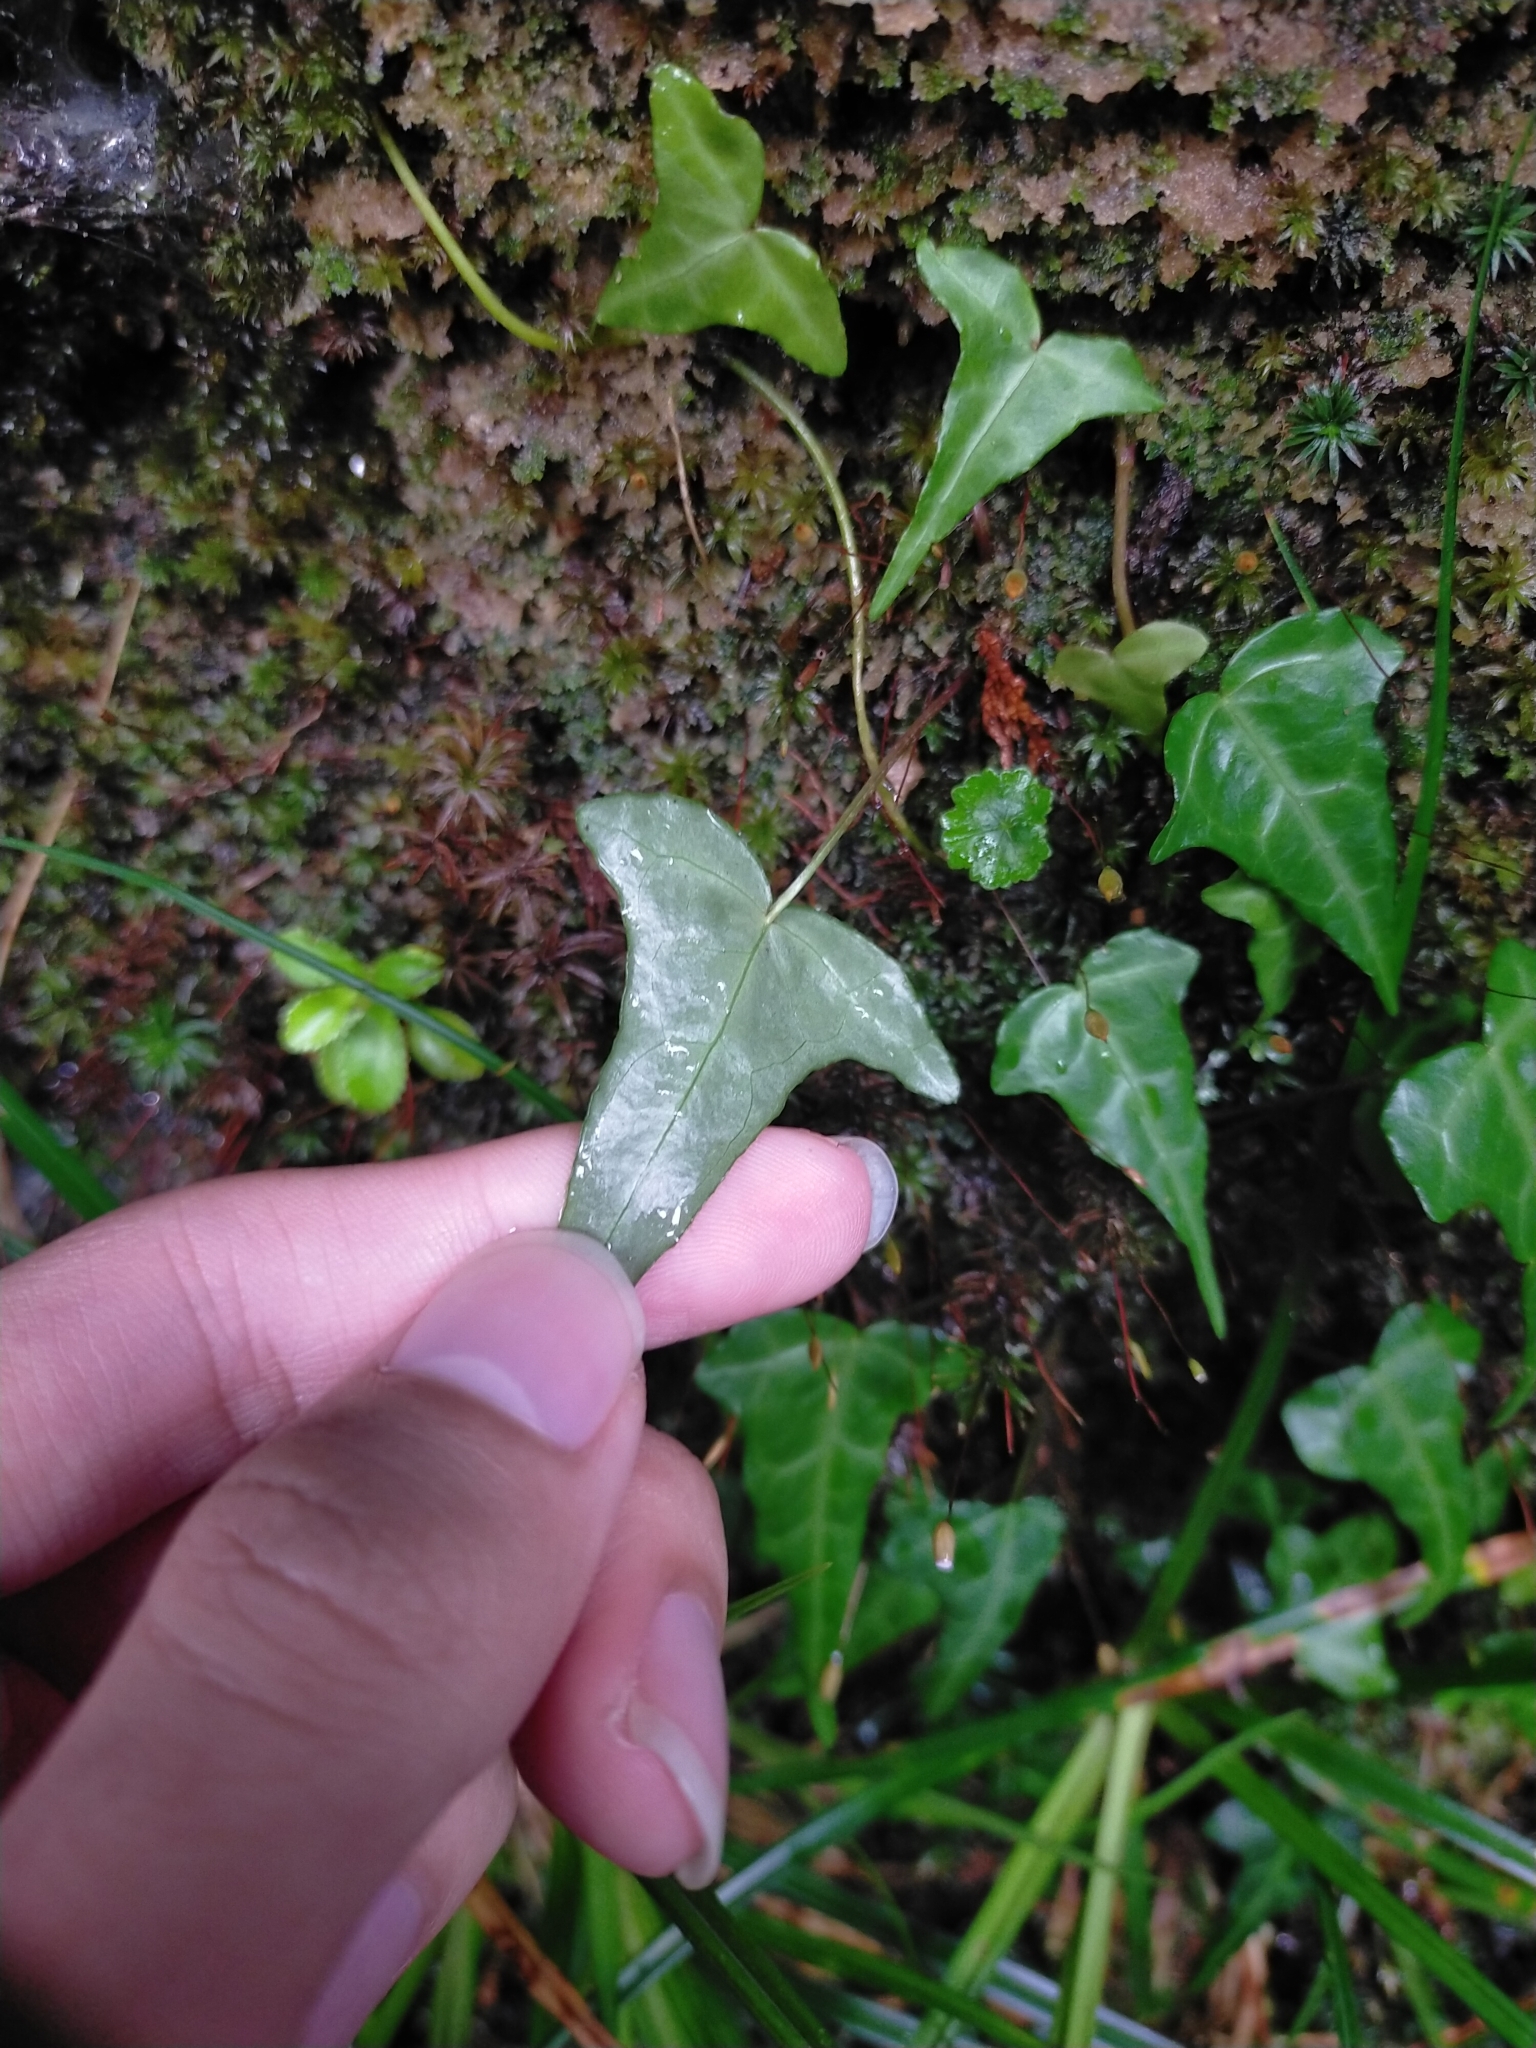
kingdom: Plantae
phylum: Tracheophyta
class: Magnoliopsida
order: Apiales
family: Araliaceae
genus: Hedera
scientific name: Hedera rhombea
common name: Japanese ivy
